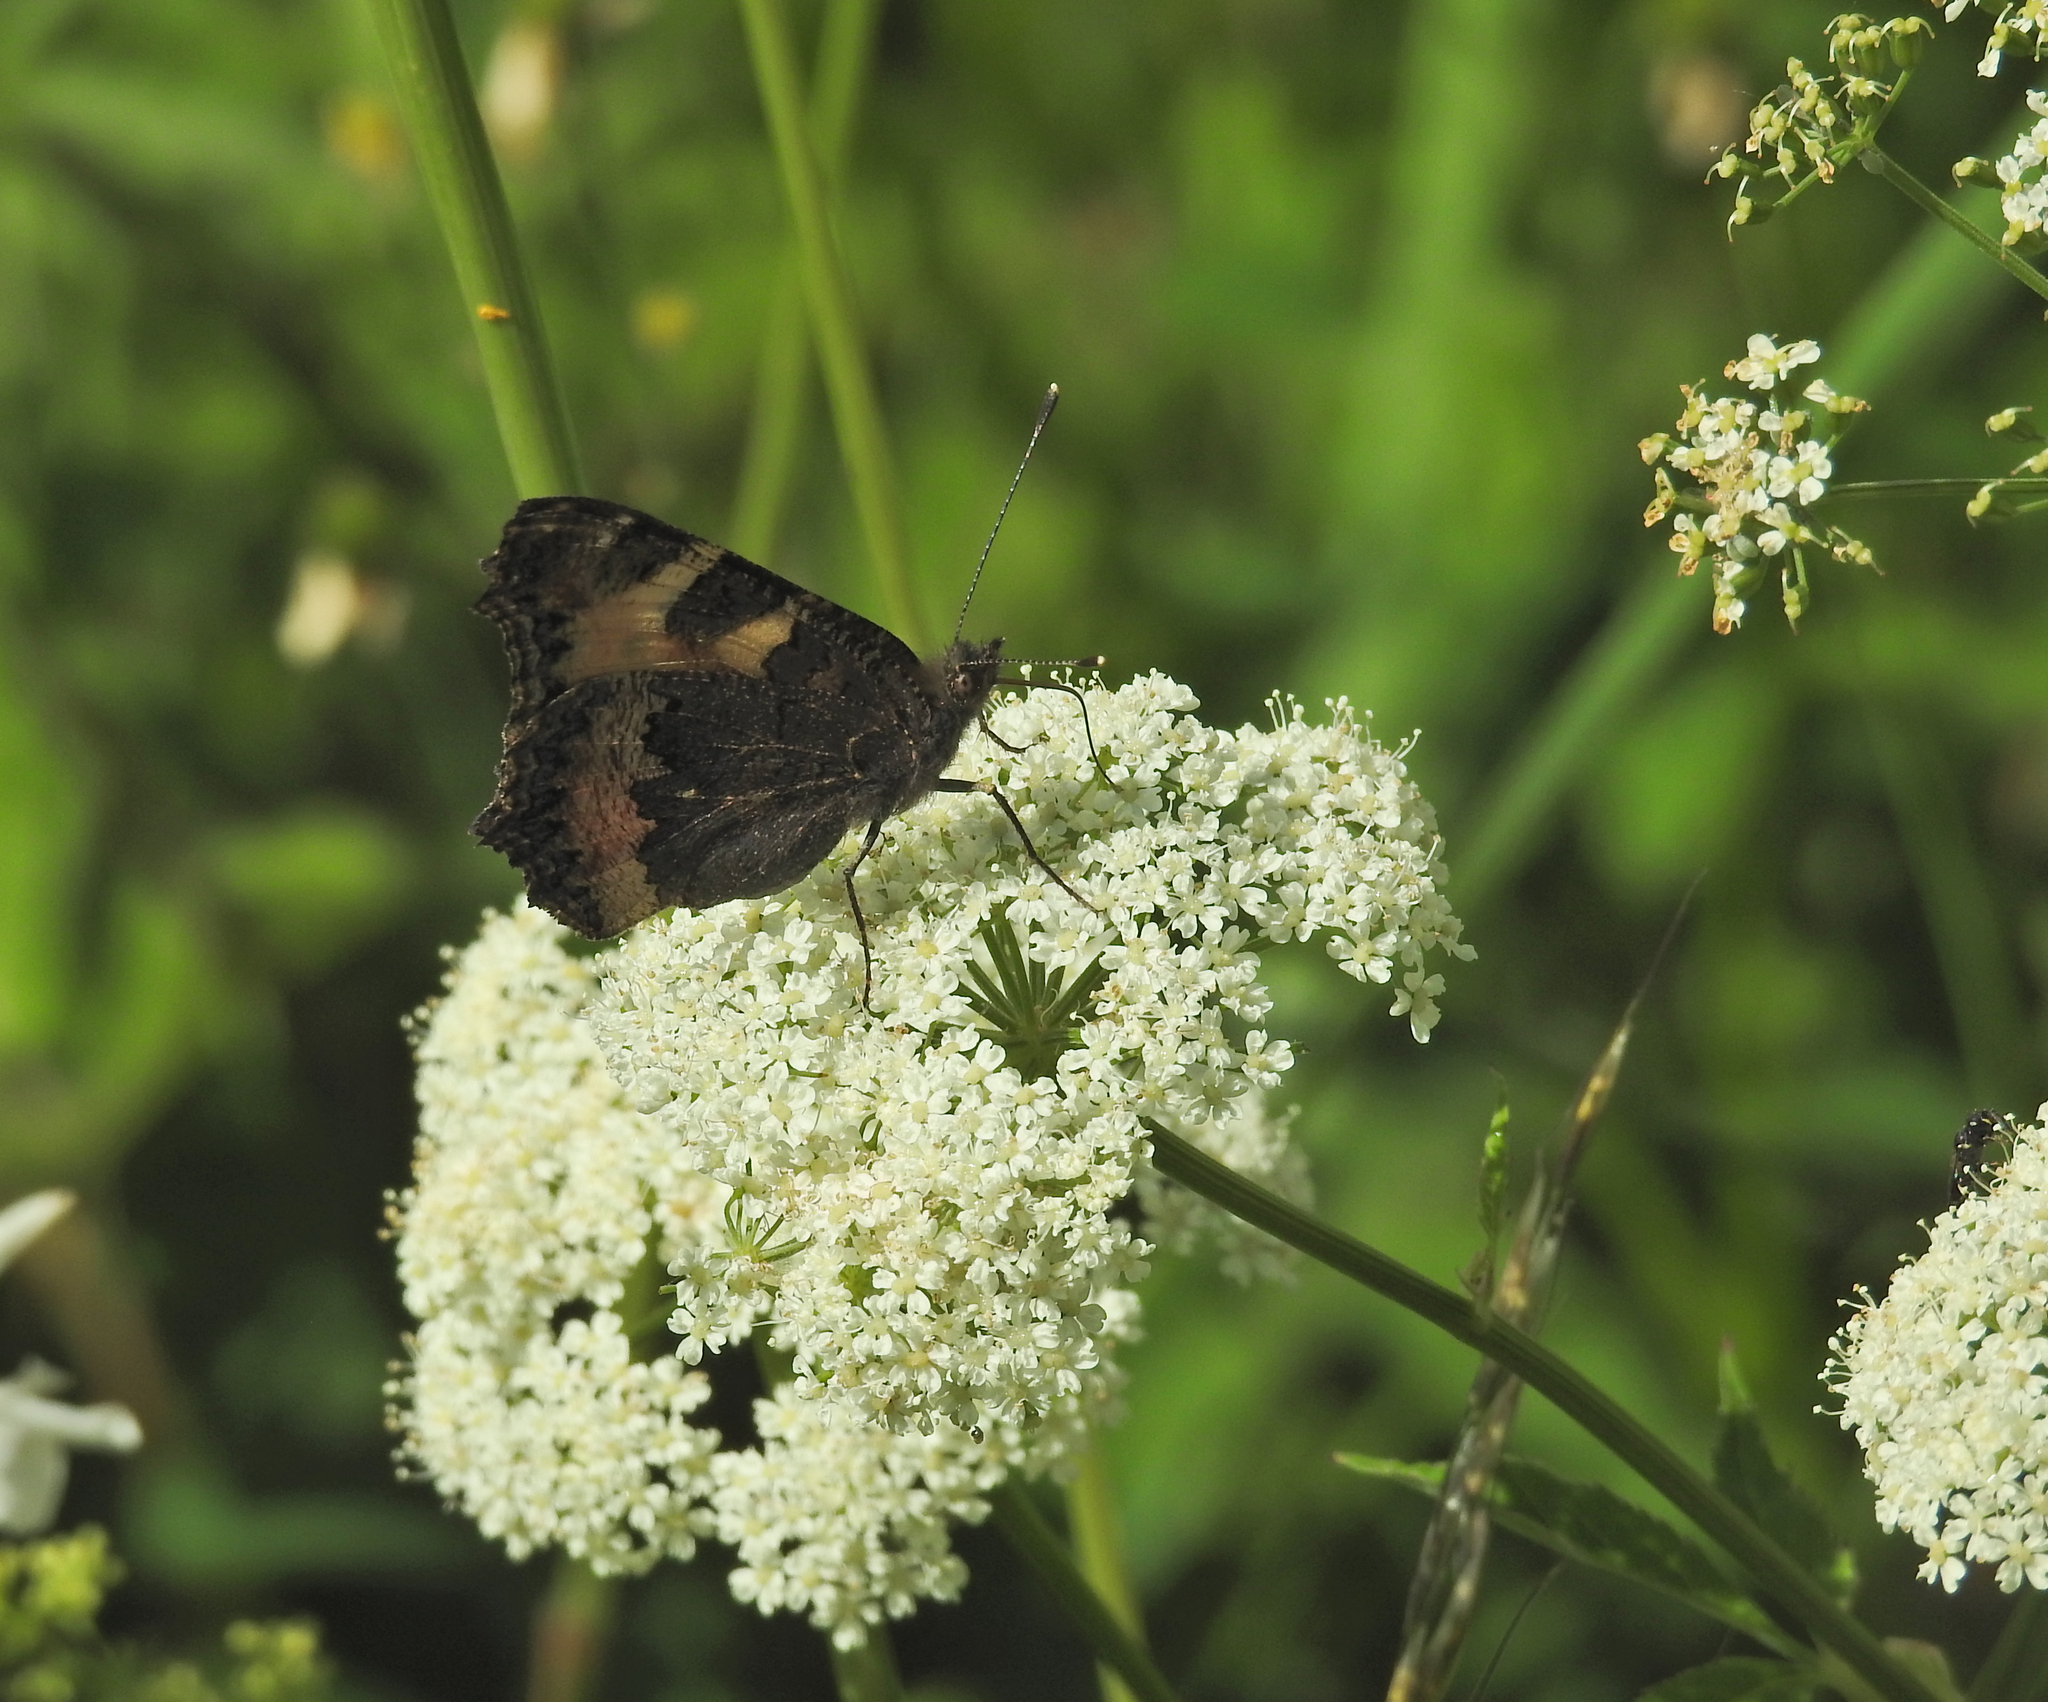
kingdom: Animalia
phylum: Arthropoda
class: Insecta
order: Lepidoptera
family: Nymphalidae
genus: Aglais
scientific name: Aglais urticae
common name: Small tortoiseshell
